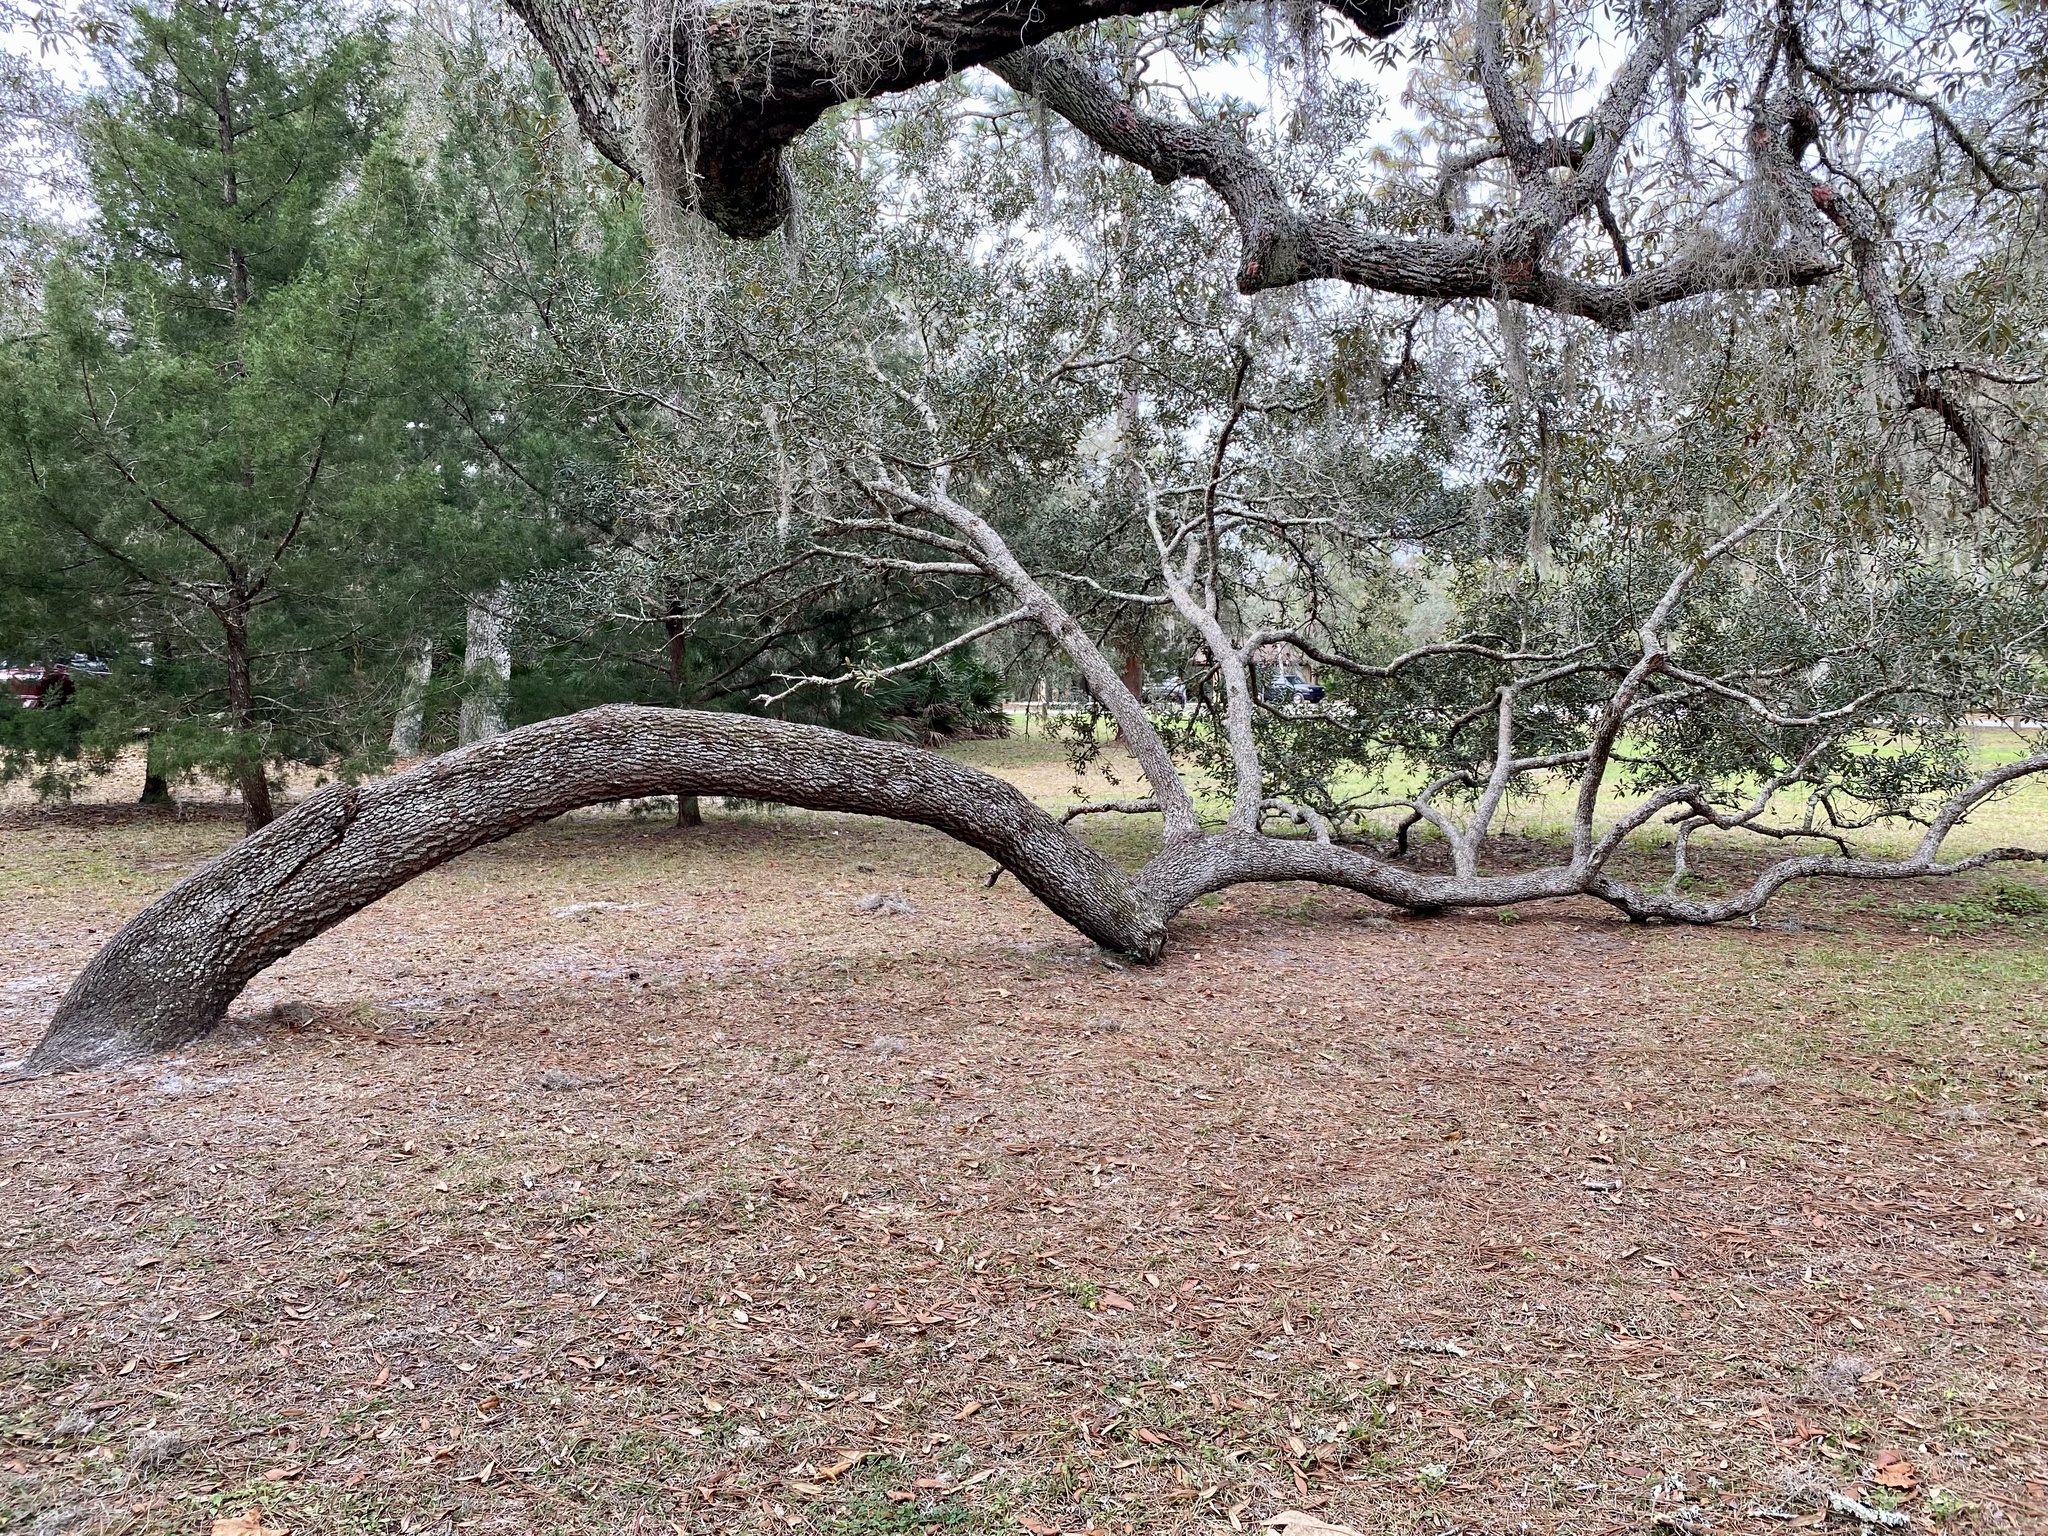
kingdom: Plantae
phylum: Tracheophyta
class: Magnoliopsida
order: Fagales
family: Fagaceae
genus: Quercus
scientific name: Quercus geminata
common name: Sand live oak
